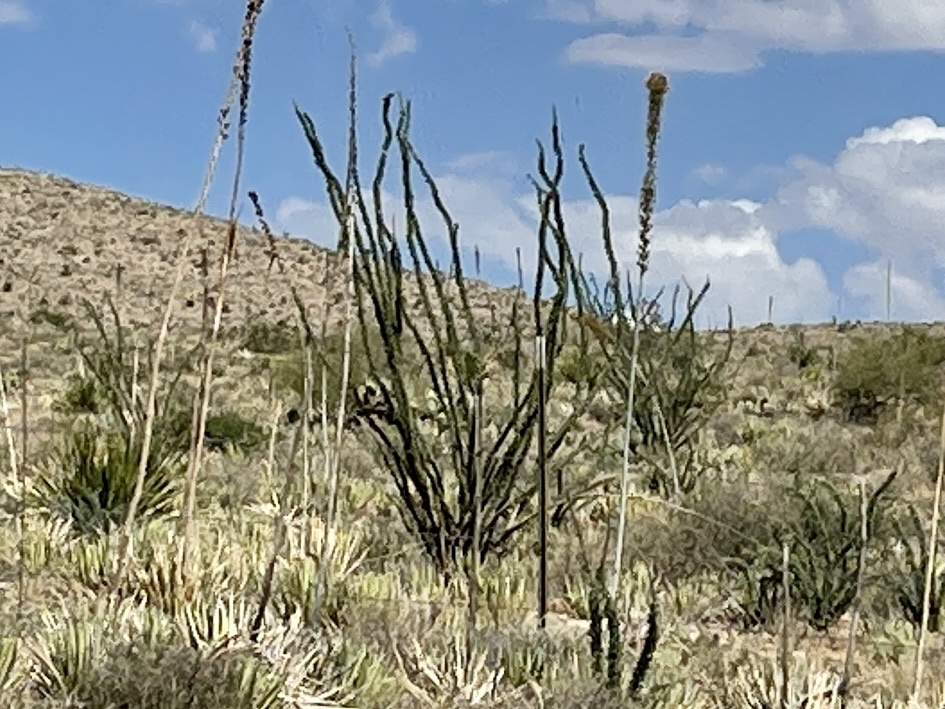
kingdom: Plantae
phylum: Tracheophyta
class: Magnoliopsida
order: Ericales
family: Fouquieriaceae
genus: Fouquieria
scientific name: Fouquieria splendens
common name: Vine-cactus
